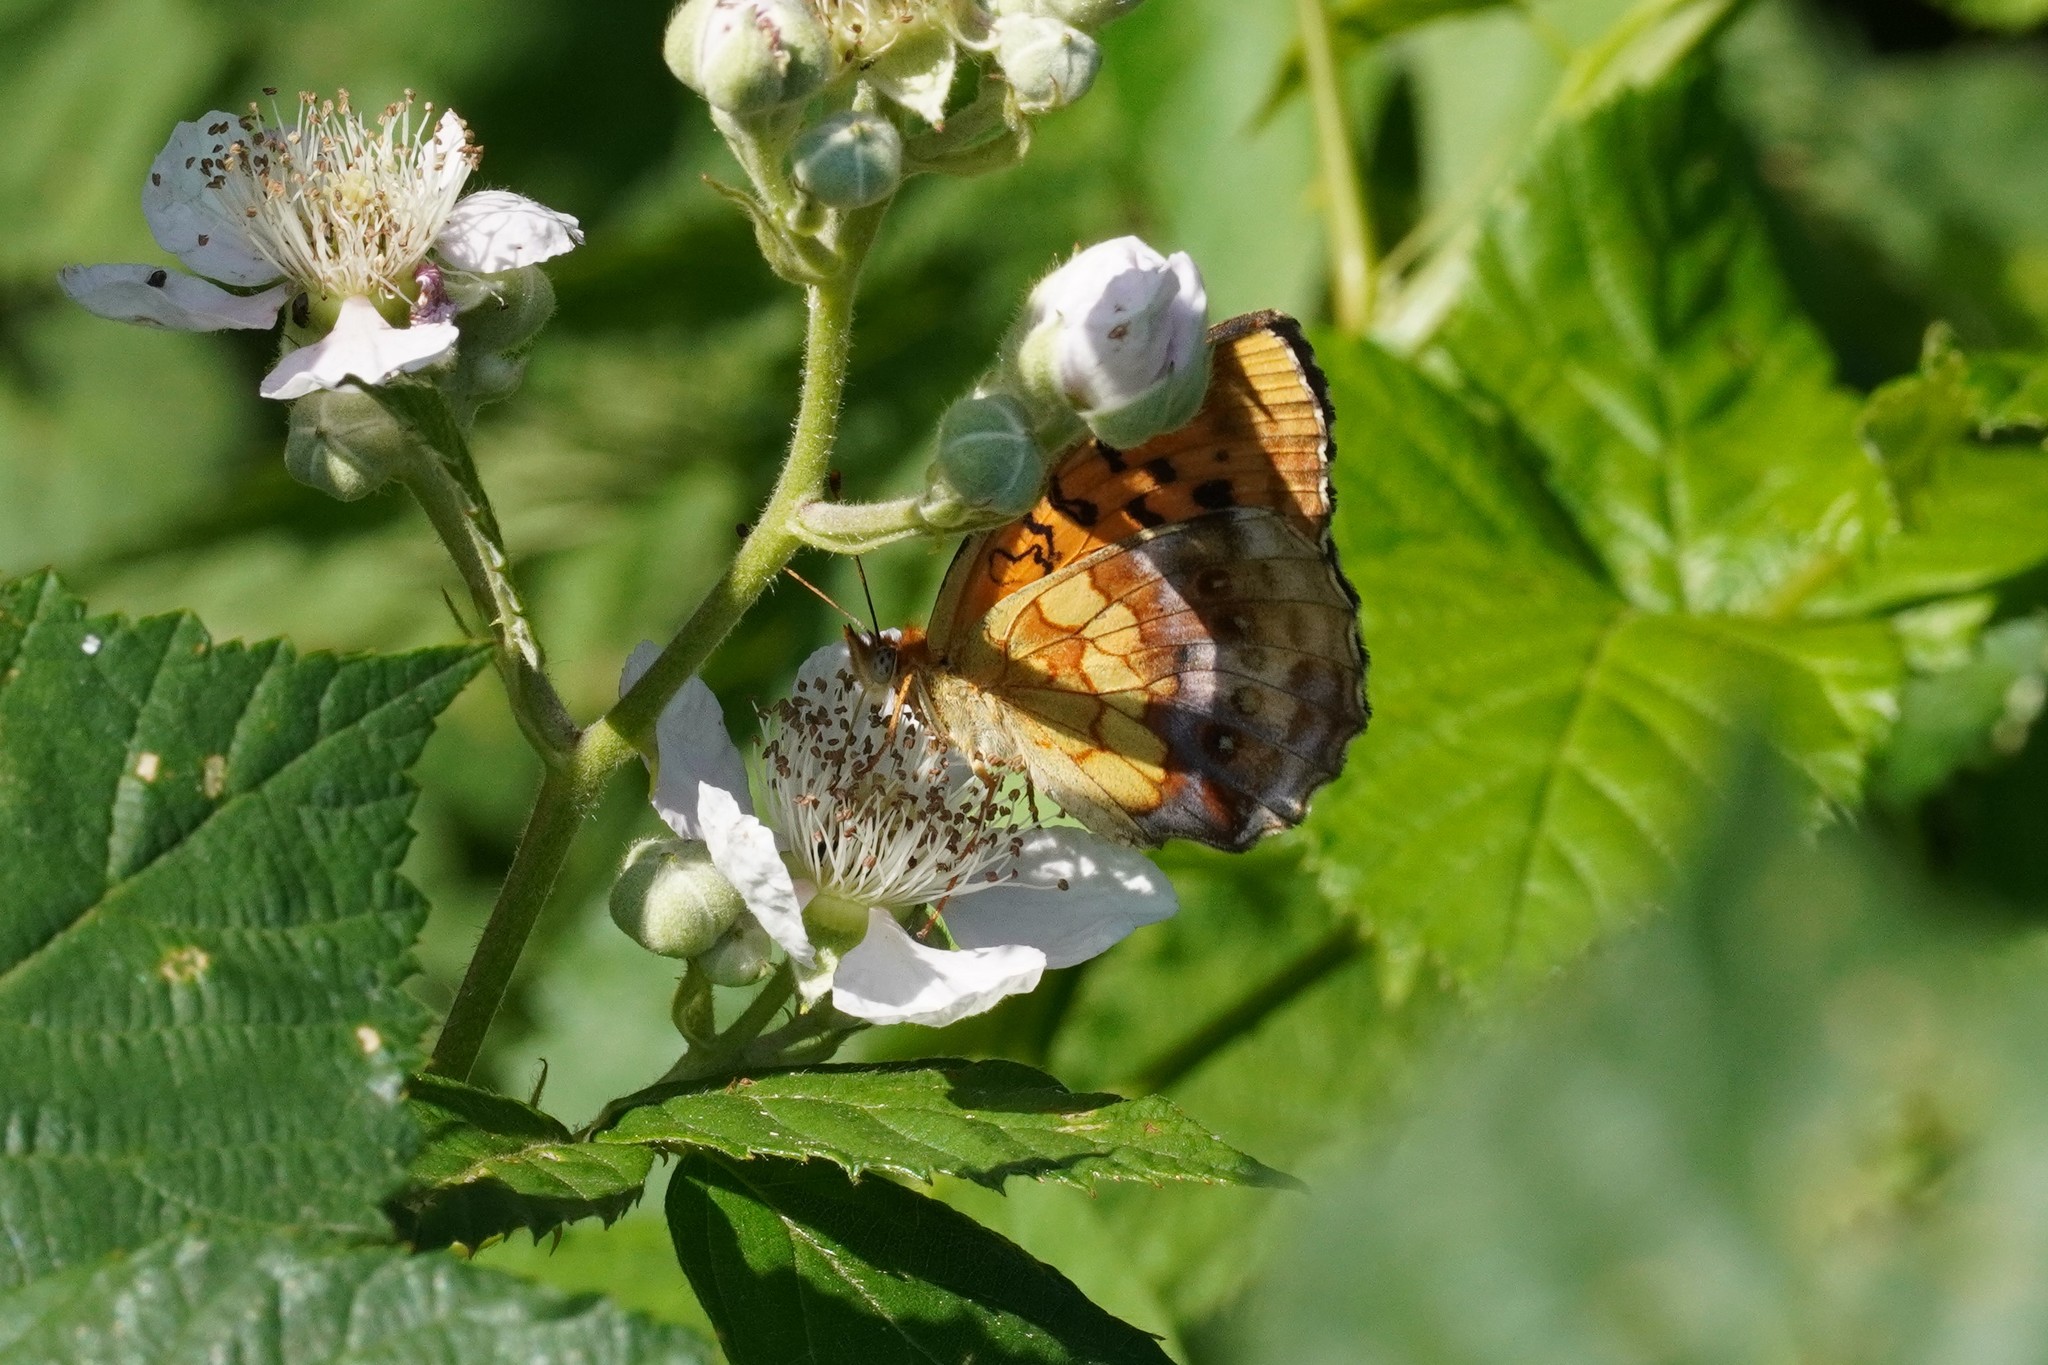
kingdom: Animalia
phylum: Arthropoda
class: Insecta
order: Lepidoptera
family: Nymphalidae
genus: Brenthis
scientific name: Brenthis daphne
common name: Marbled fritillary
